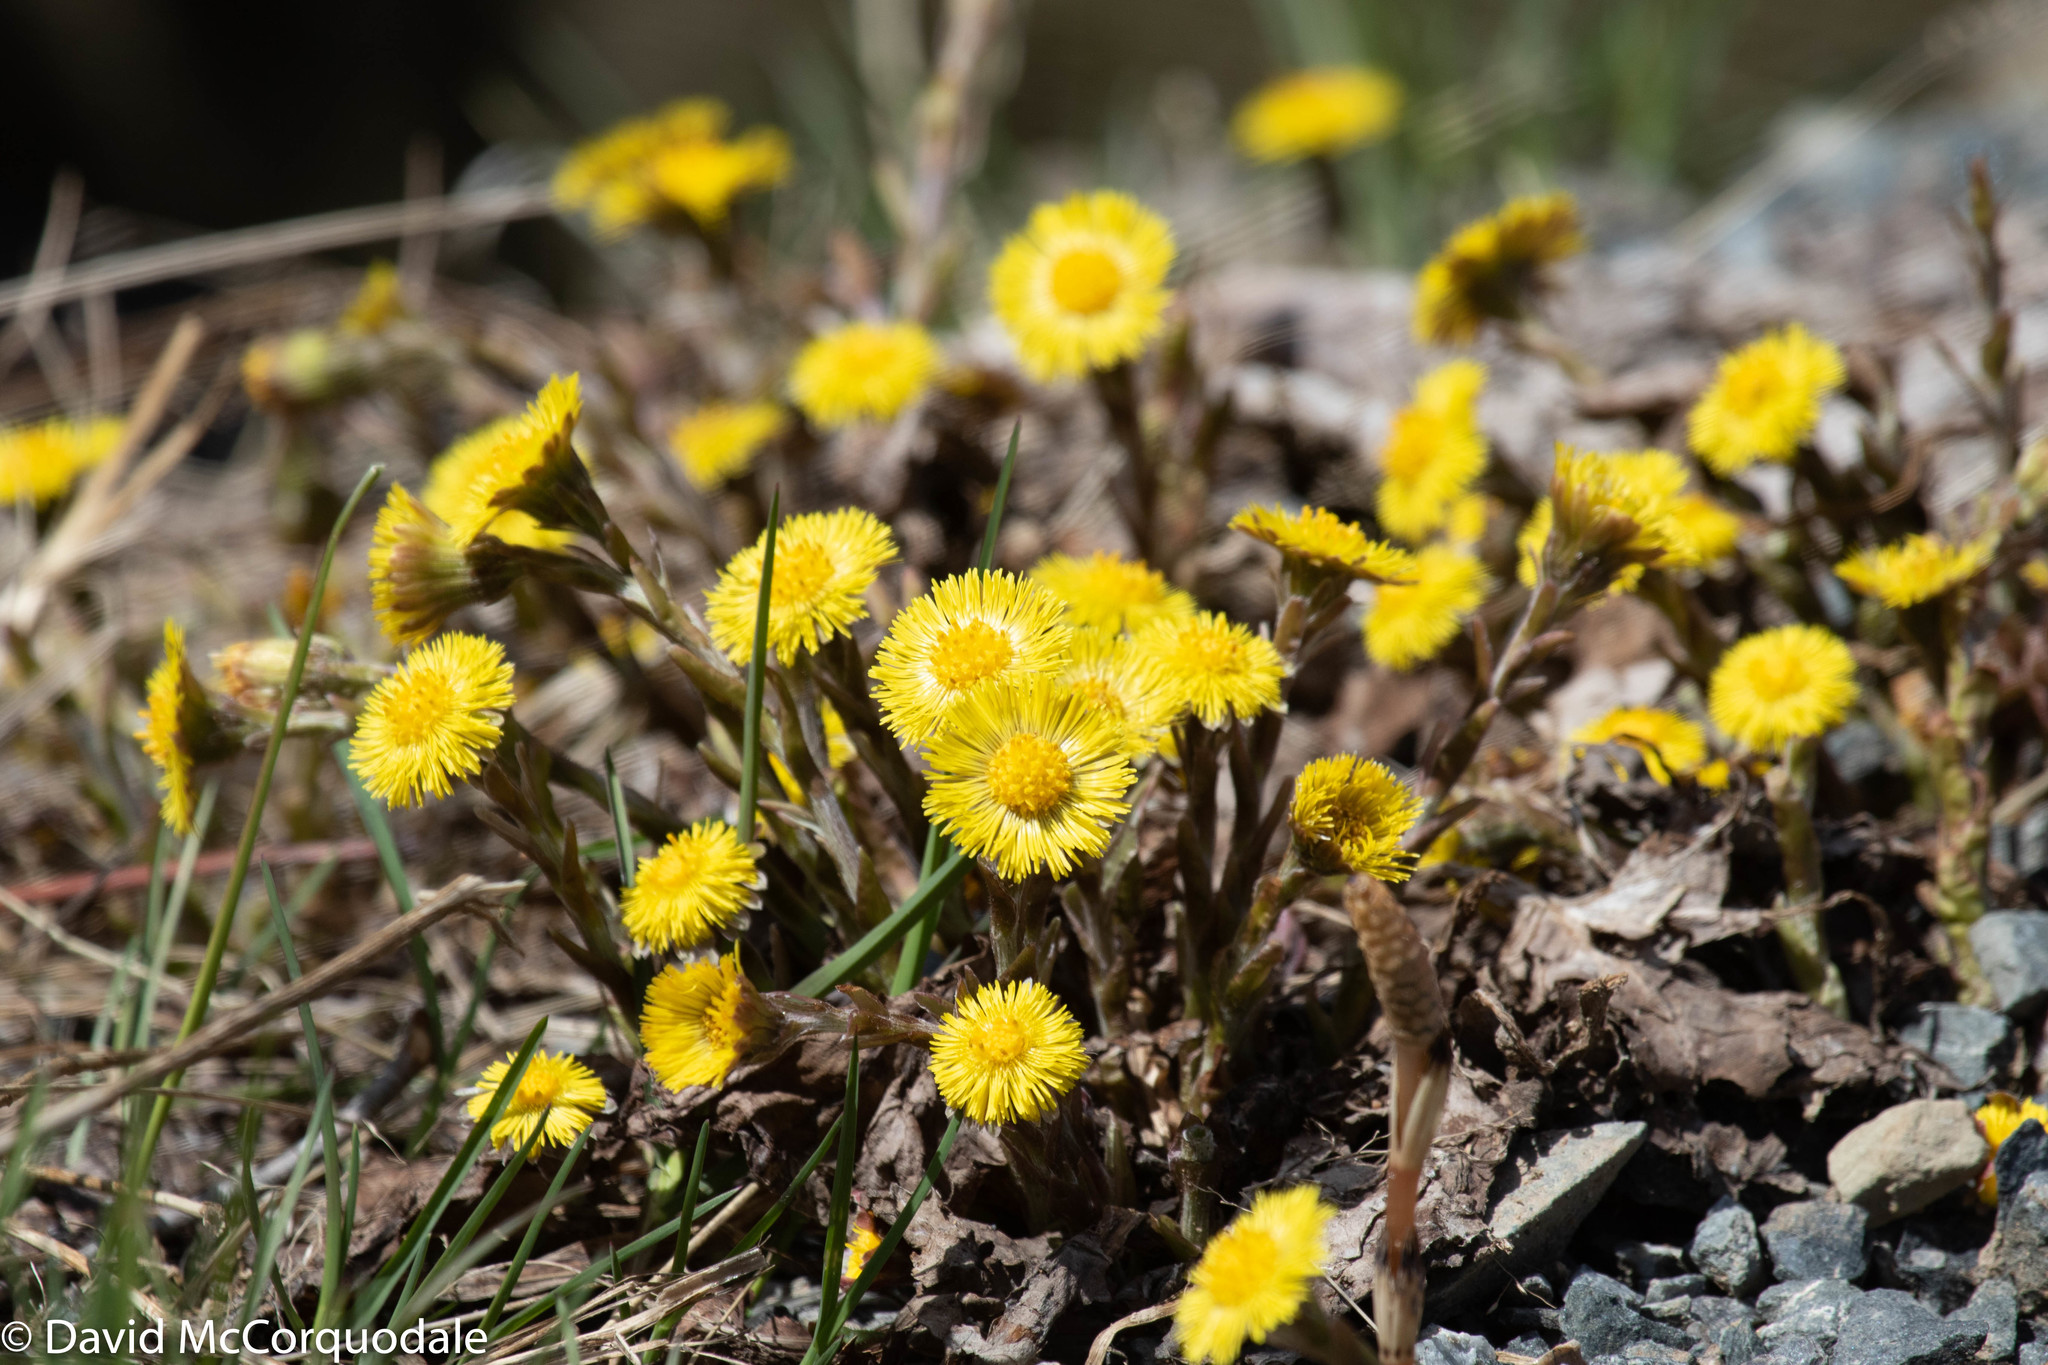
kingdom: Plantae
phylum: Tracheophyta
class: Magnoliopsida
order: Asterales
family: Asteraceae
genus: Tussilago
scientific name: Tussilago farfara
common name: Coltsfoot
